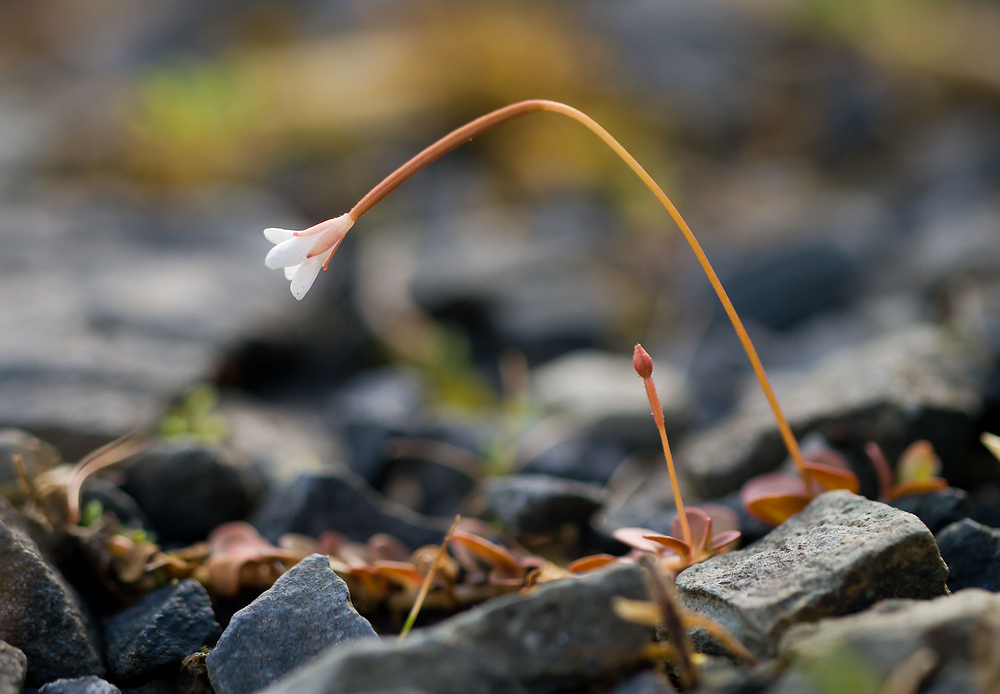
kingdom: Plantae
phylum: Tracheophyta
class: Magnoliopsida
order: Myrtales
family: Onagraceae
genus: Epilobium
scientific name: Epilobium brunnescens
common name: New zealand willowherb
